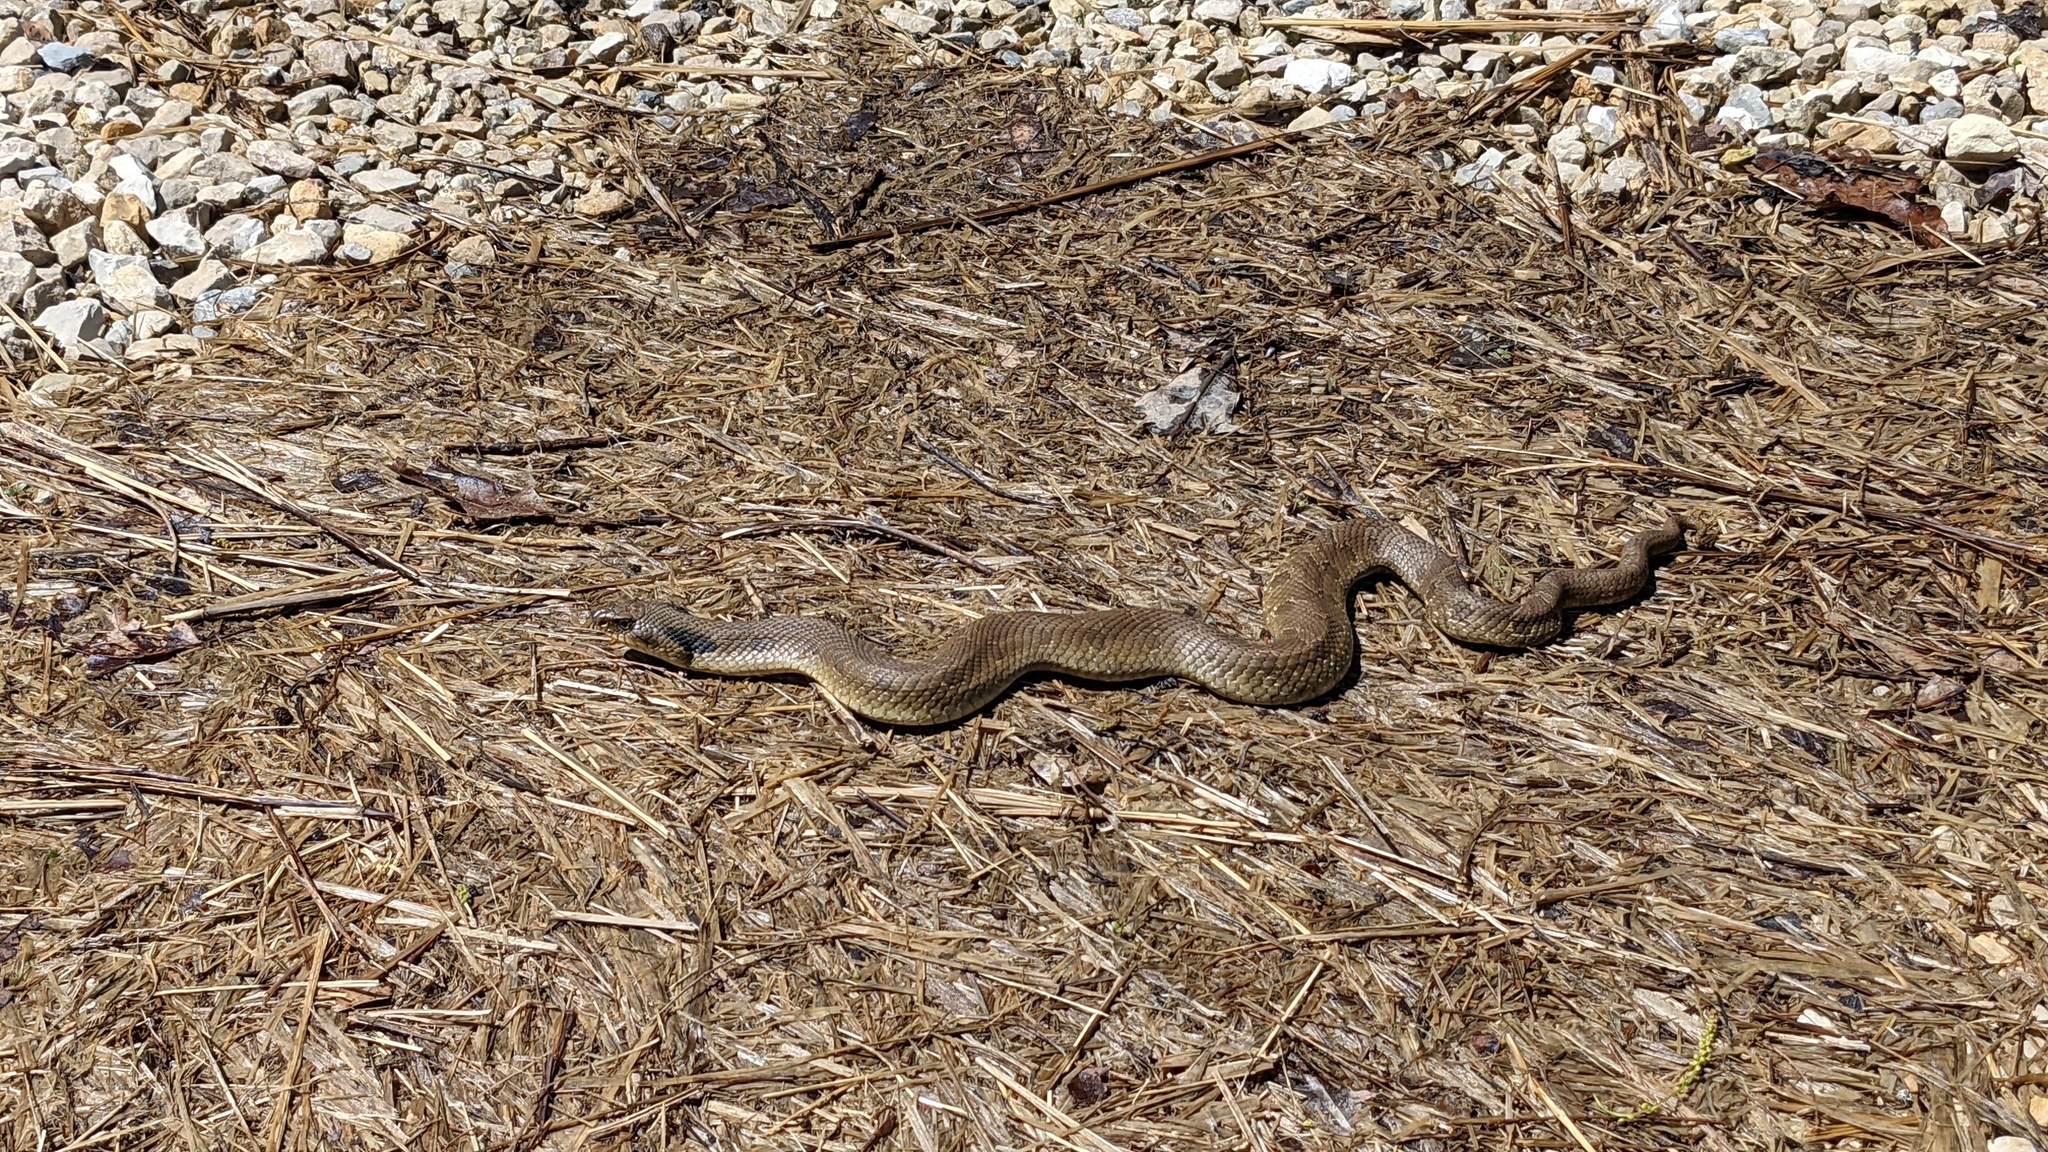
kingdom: Animalia
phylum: Chordata
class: Squamata
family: Colubridae
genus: Heterodon
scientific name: Heterodon platirhinos
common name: Eastern hognose snake
